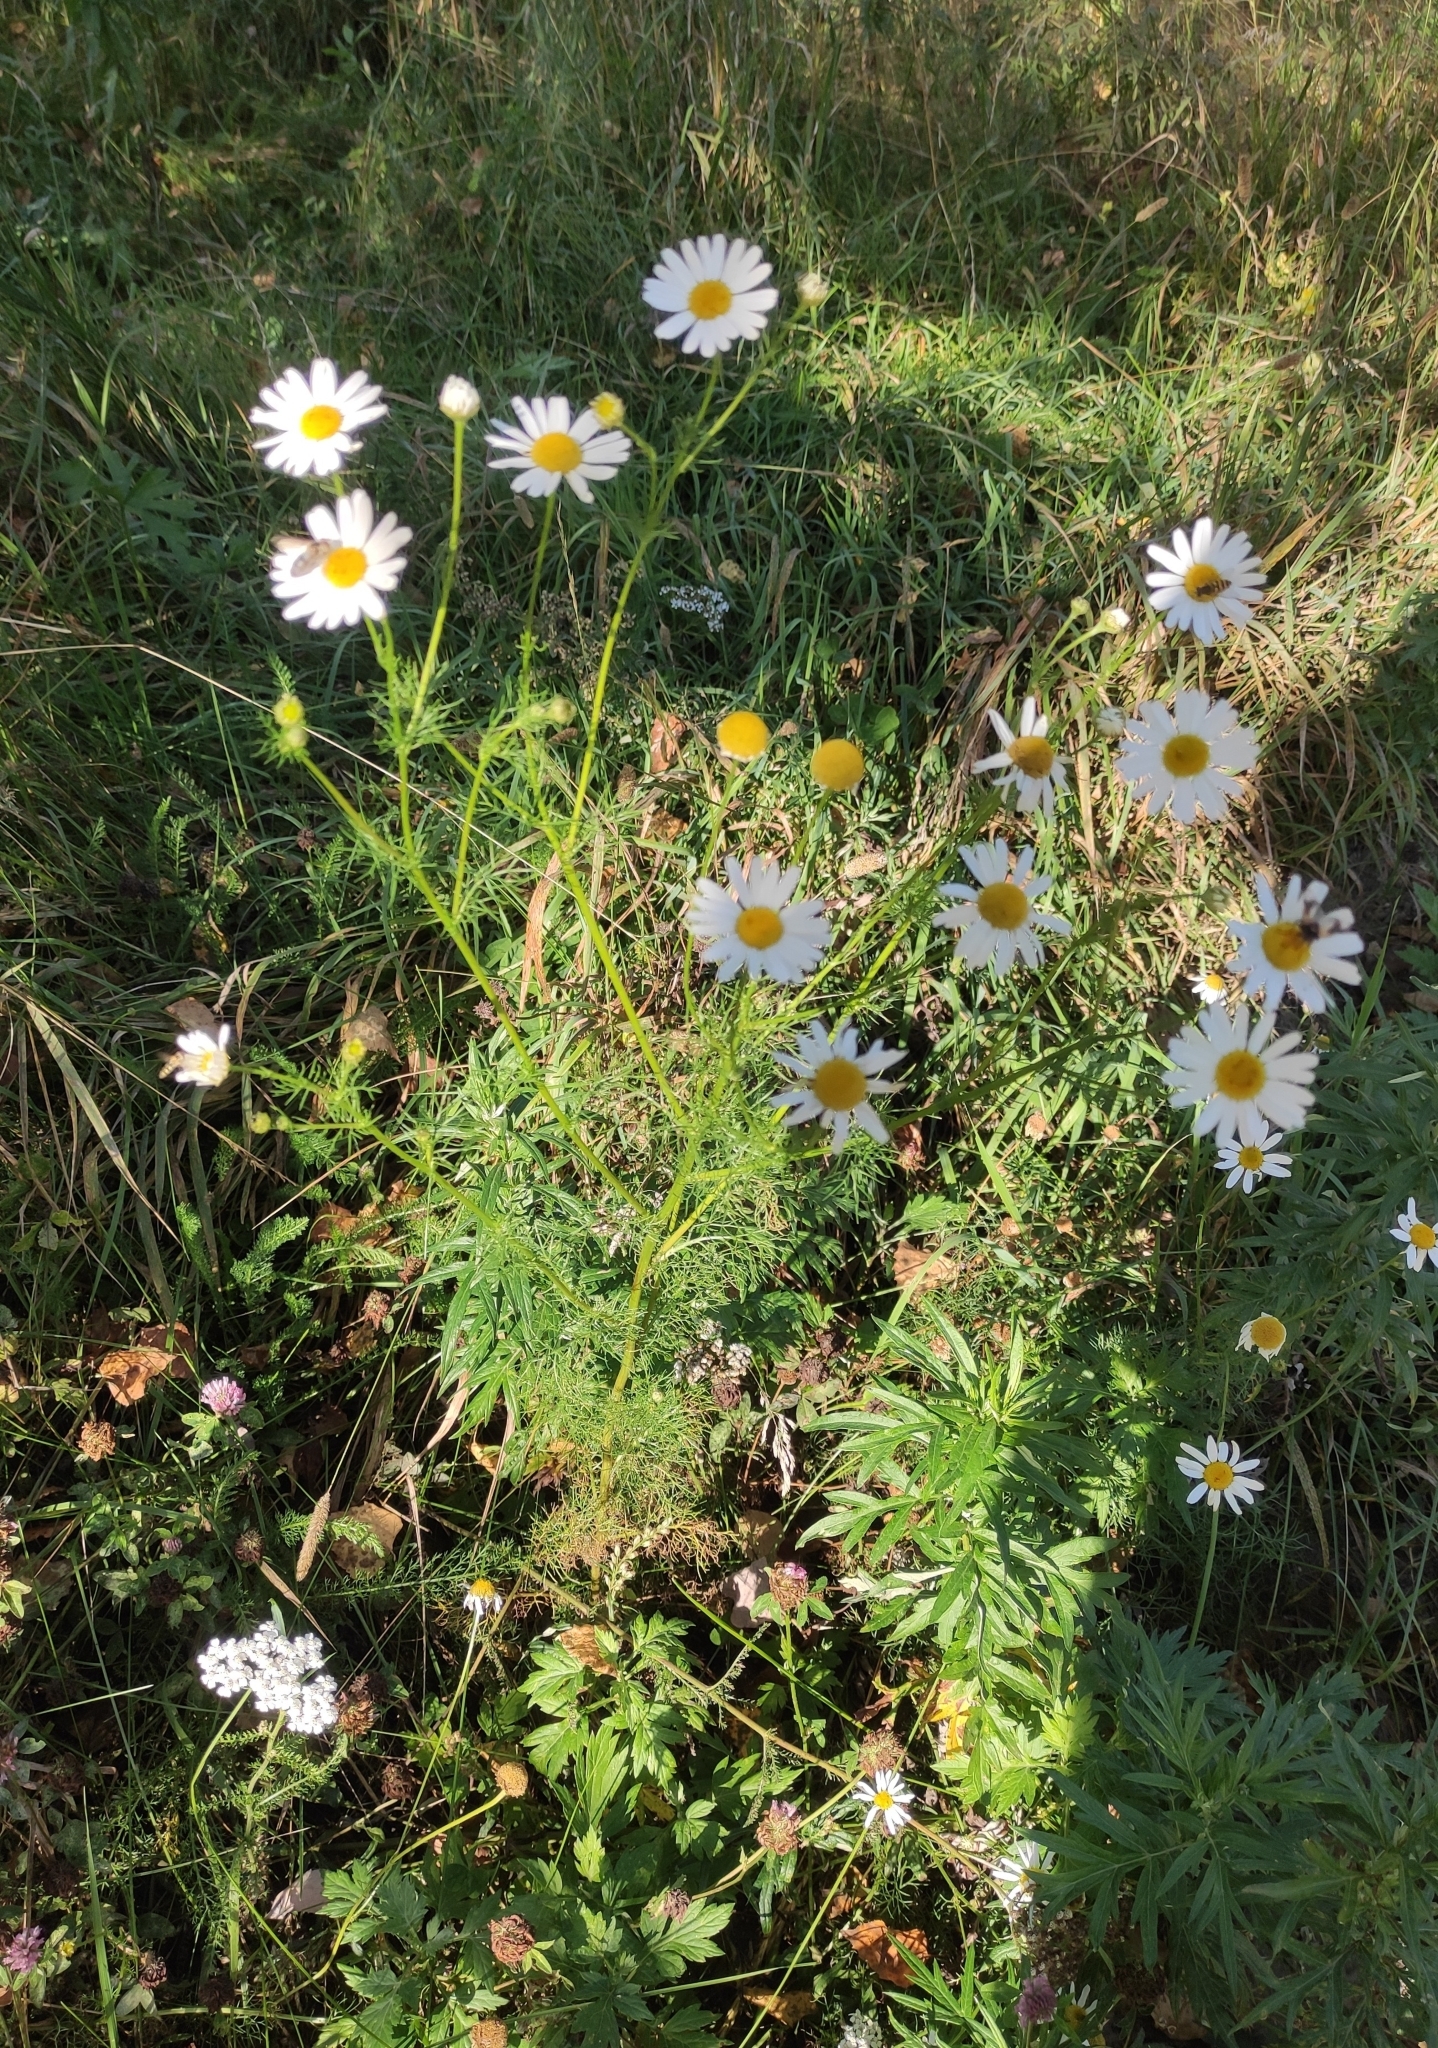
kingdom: Plantae
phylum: Tracheophyta
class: Magnoliopsida
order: Asterales
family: Asteraceae
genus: Tripleurospermum
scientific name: Tripleurospermum inodorum
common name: Scentless mayweed
